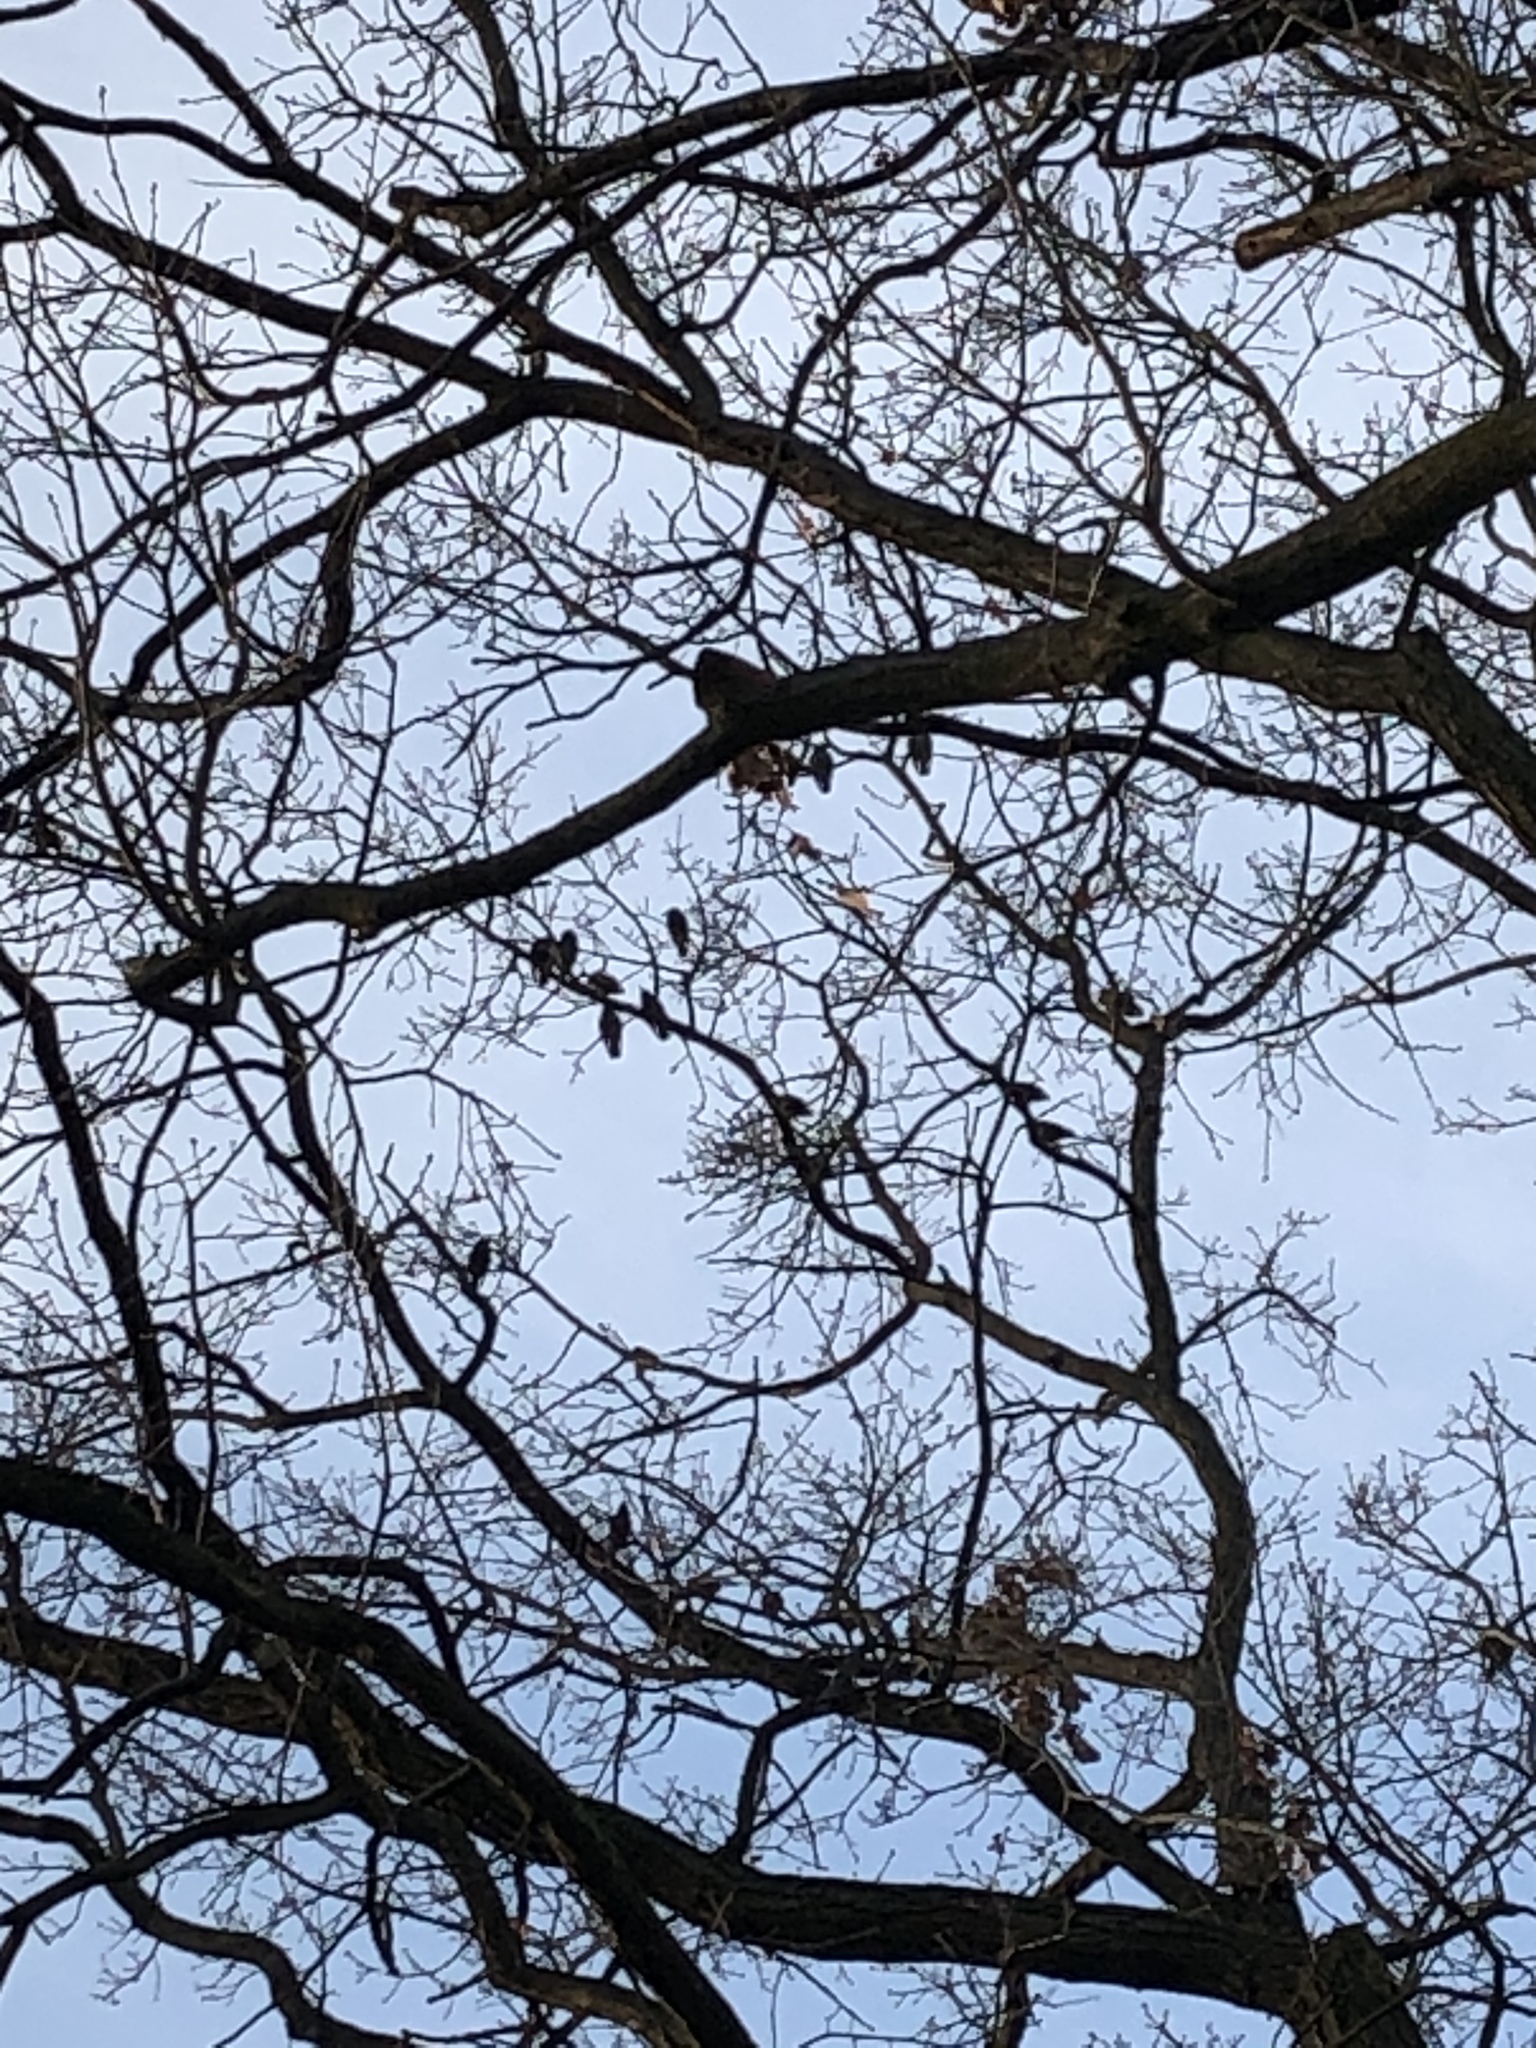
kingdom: Animalia
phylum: Chordata
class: Aves
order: Passeriformes
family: Sturnidae
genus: Sturnus
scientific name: Sturnus vulgaris
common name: Common starling
